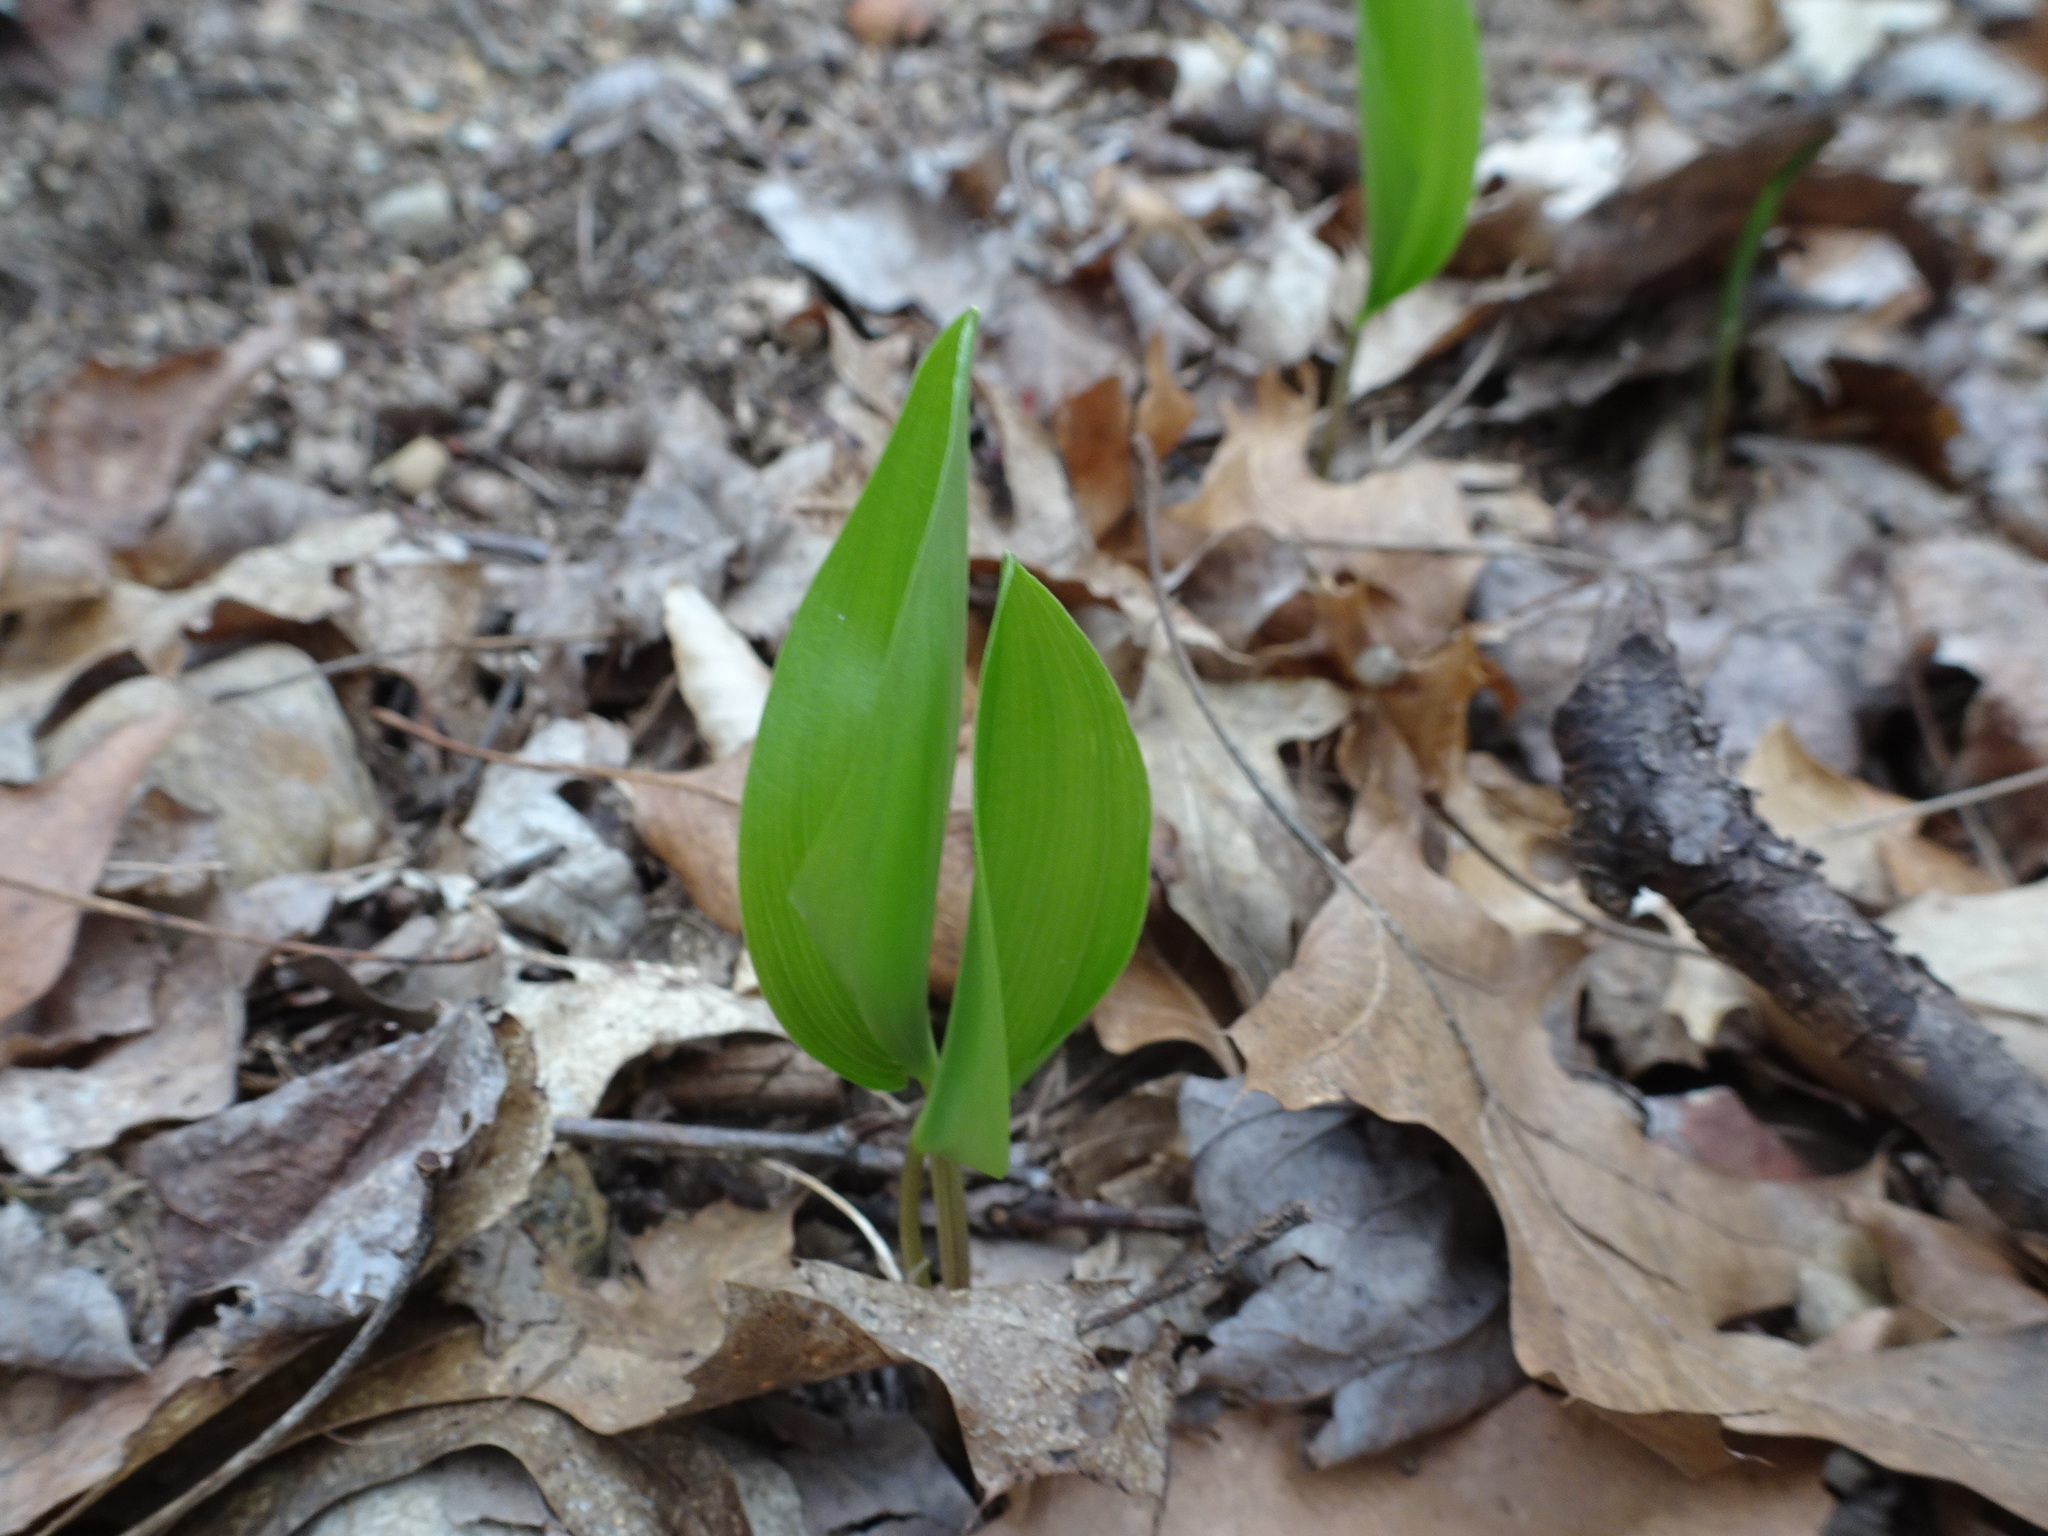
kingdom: Plantae
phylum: Tracheophyta
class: Liliopsida
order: Asparagales
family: Asparagaceae
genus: Maianthemum
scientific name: Maianthemum canadense
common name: False lily-of-the-valley
